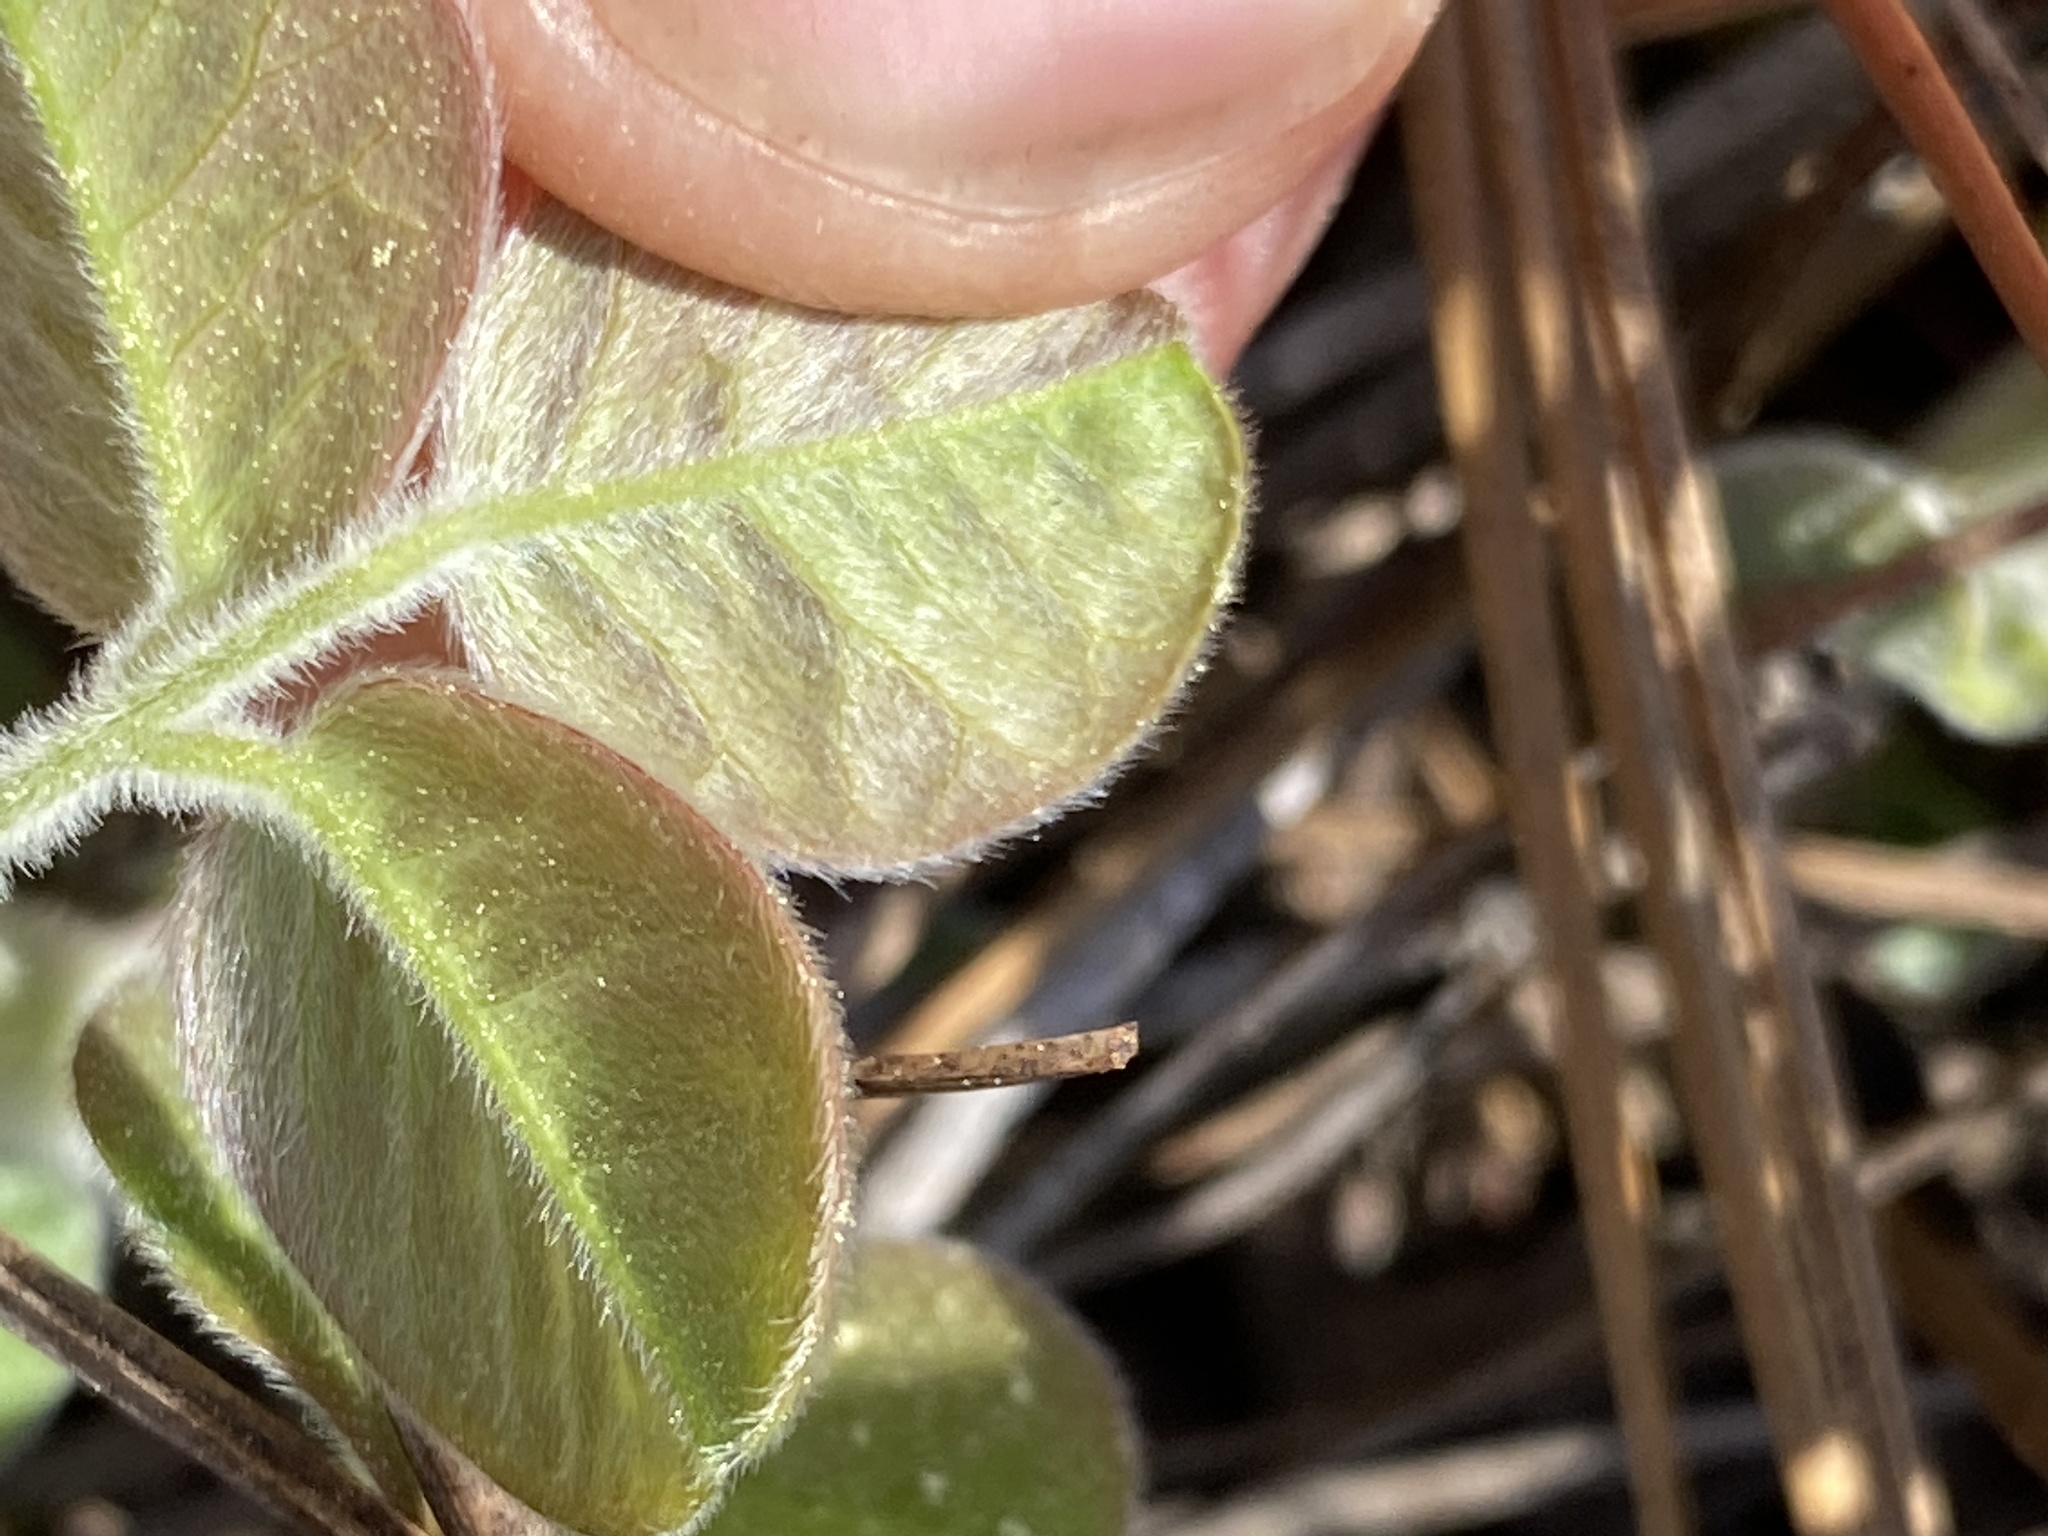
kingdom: Plantae
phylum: Tracheophyta
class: Magnoliopsida
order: Fabales
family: Fabaceae
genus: Lespedeza
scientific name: Lespedeza hirta
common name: Hairy lespedeza
